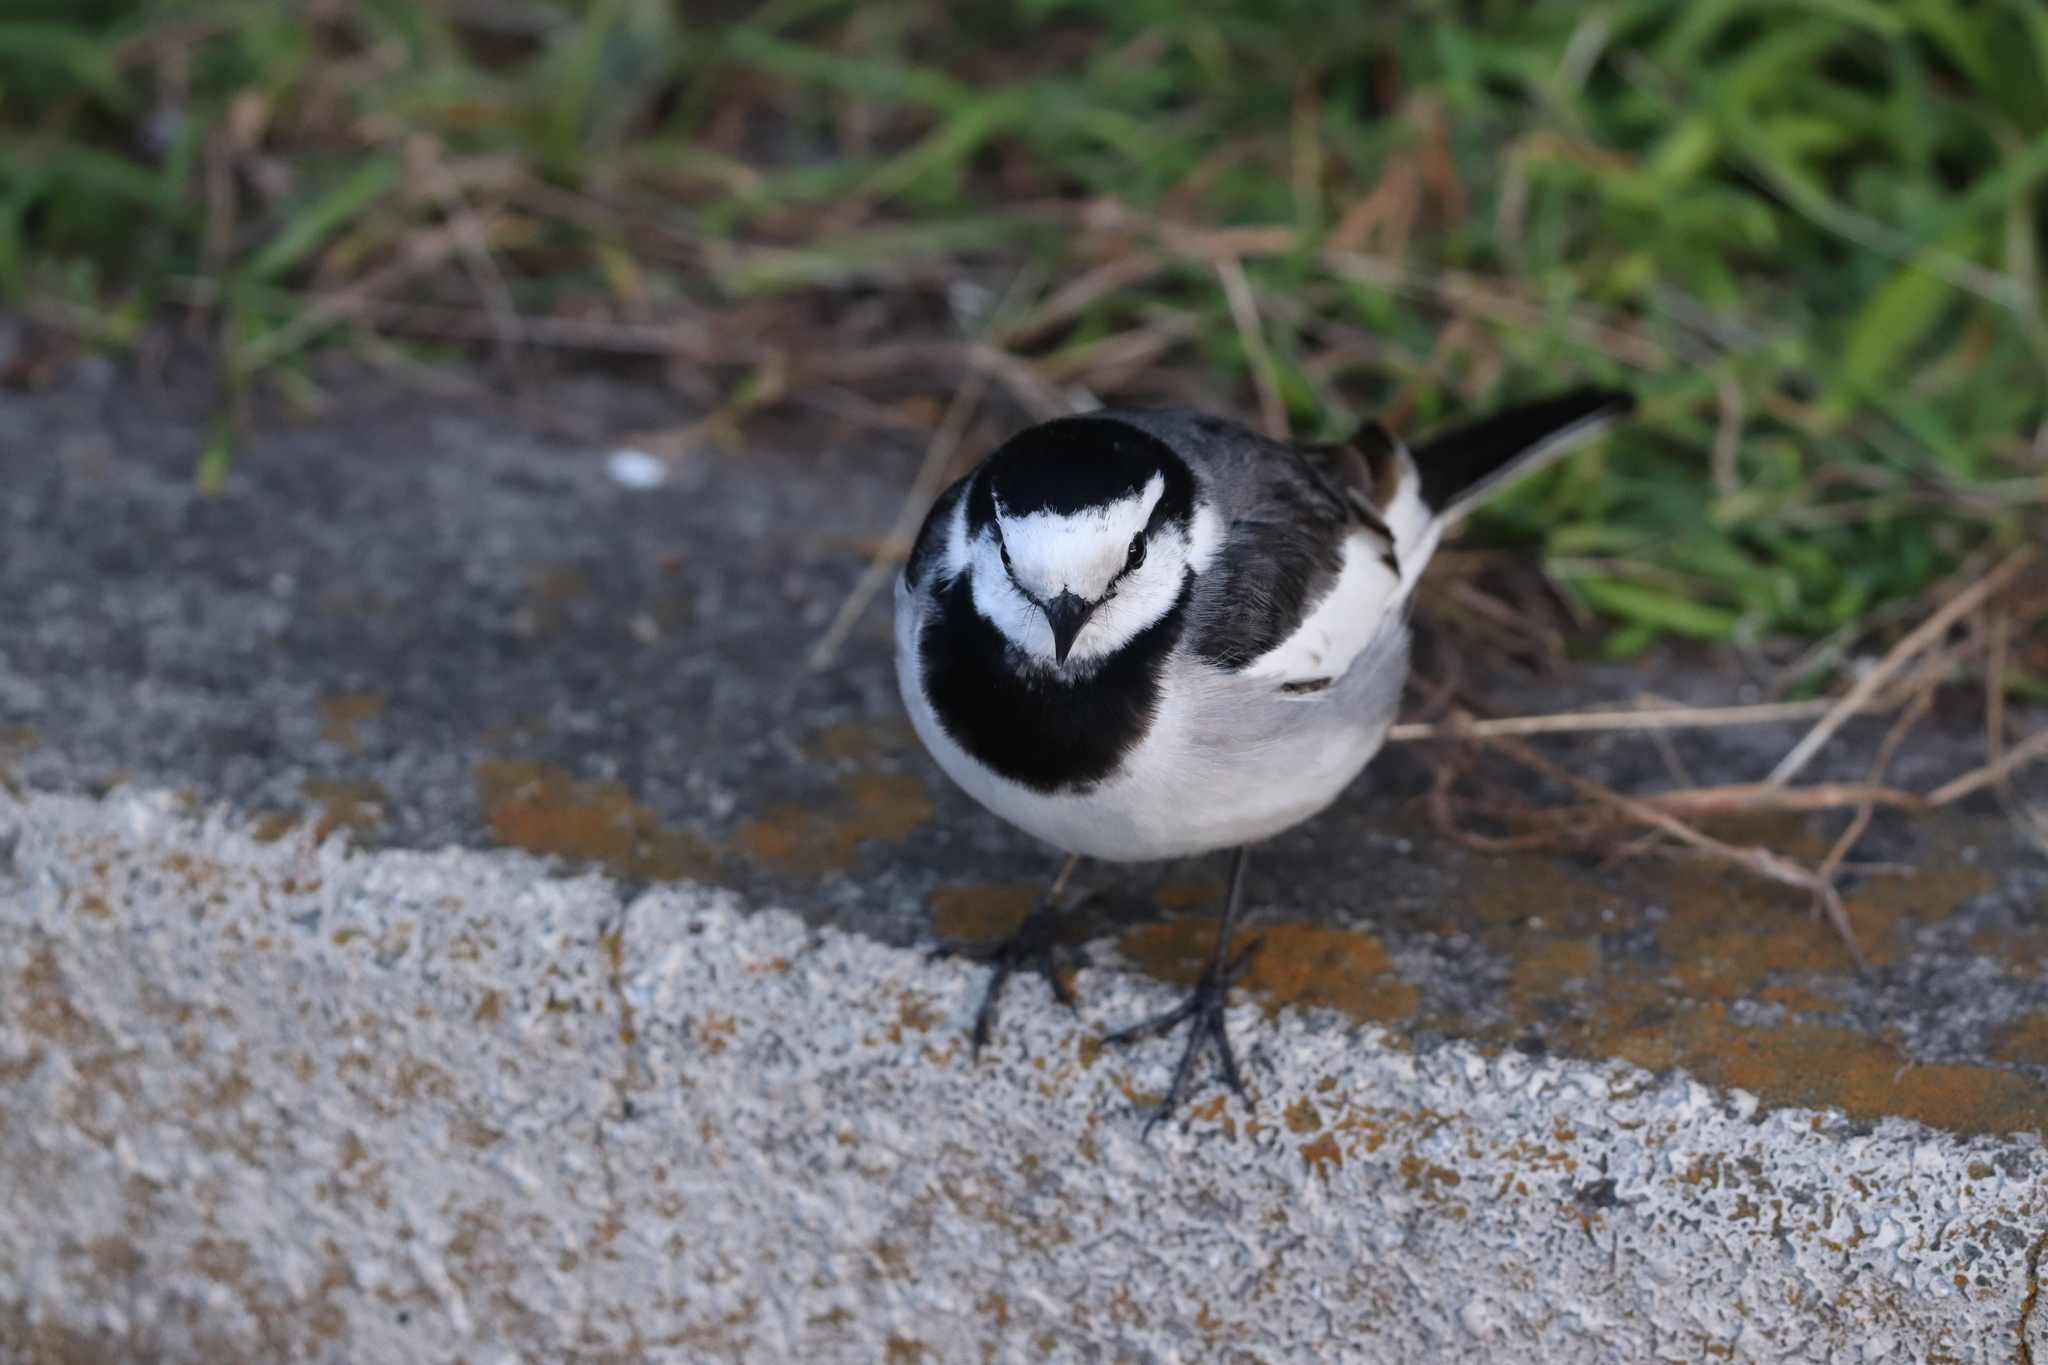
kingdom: Animalia
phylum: Chordata
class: Aves
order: Passeriformes
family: Motacillidae
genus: Motacilla
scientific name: Motacilla alba
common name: White wagtail
